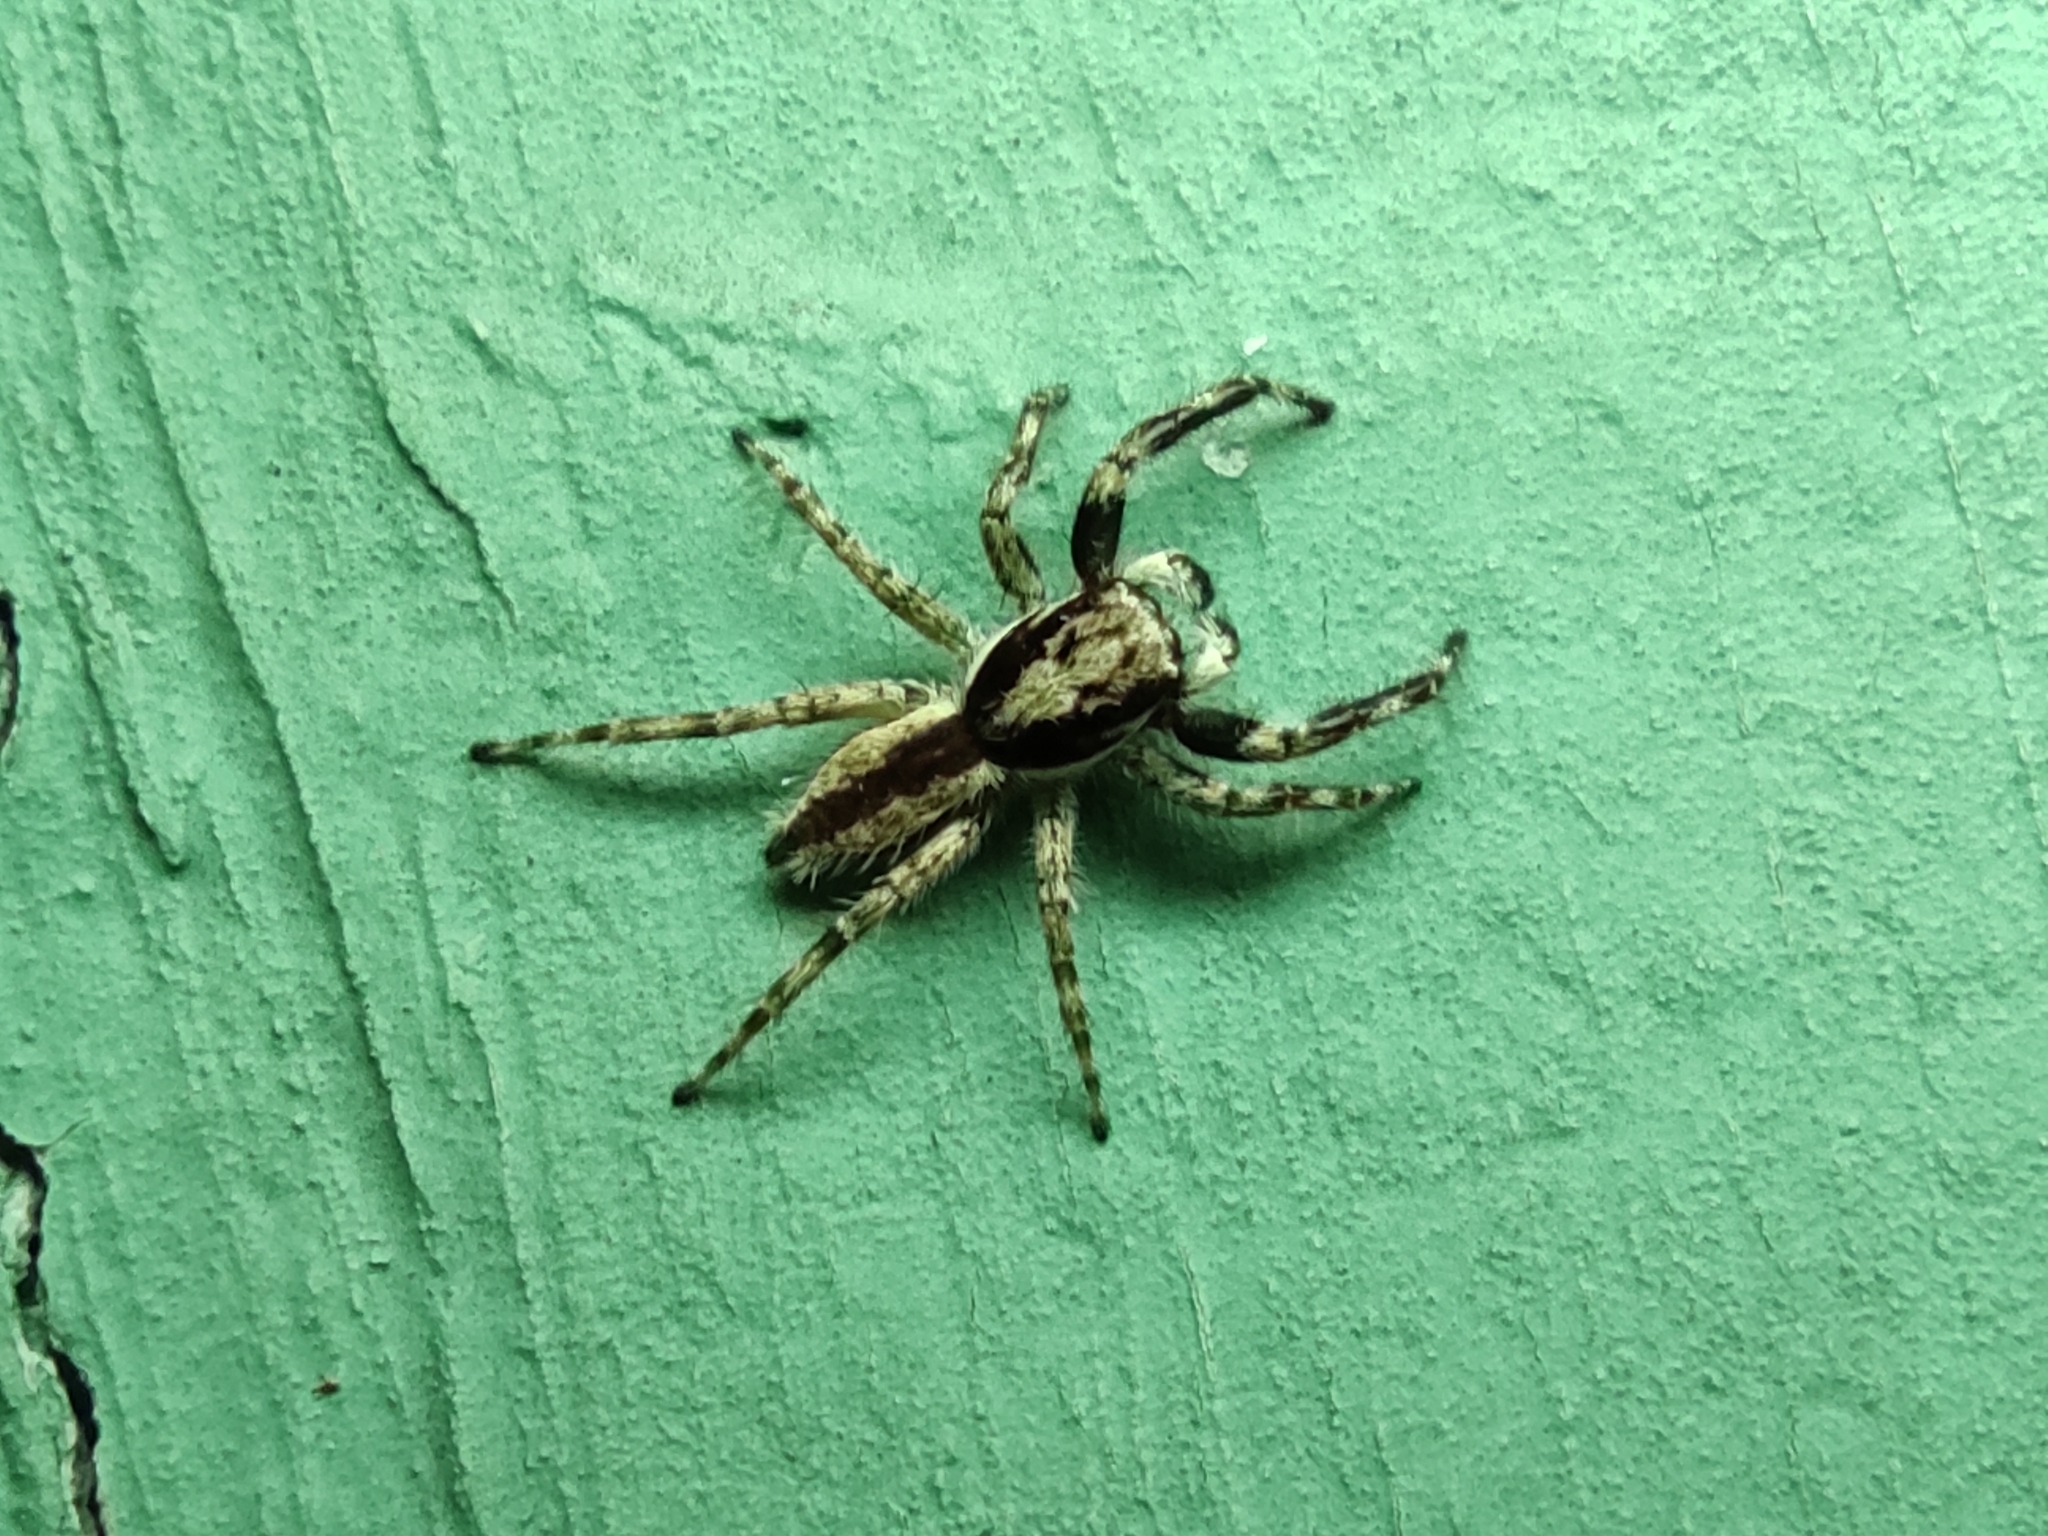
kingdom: Animalia
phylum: Arthropoda
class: Arachnida
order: Araneae
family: Salticidae
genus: Menemerus
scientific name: Menemerus bivittatus
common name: Gray wall jumper
